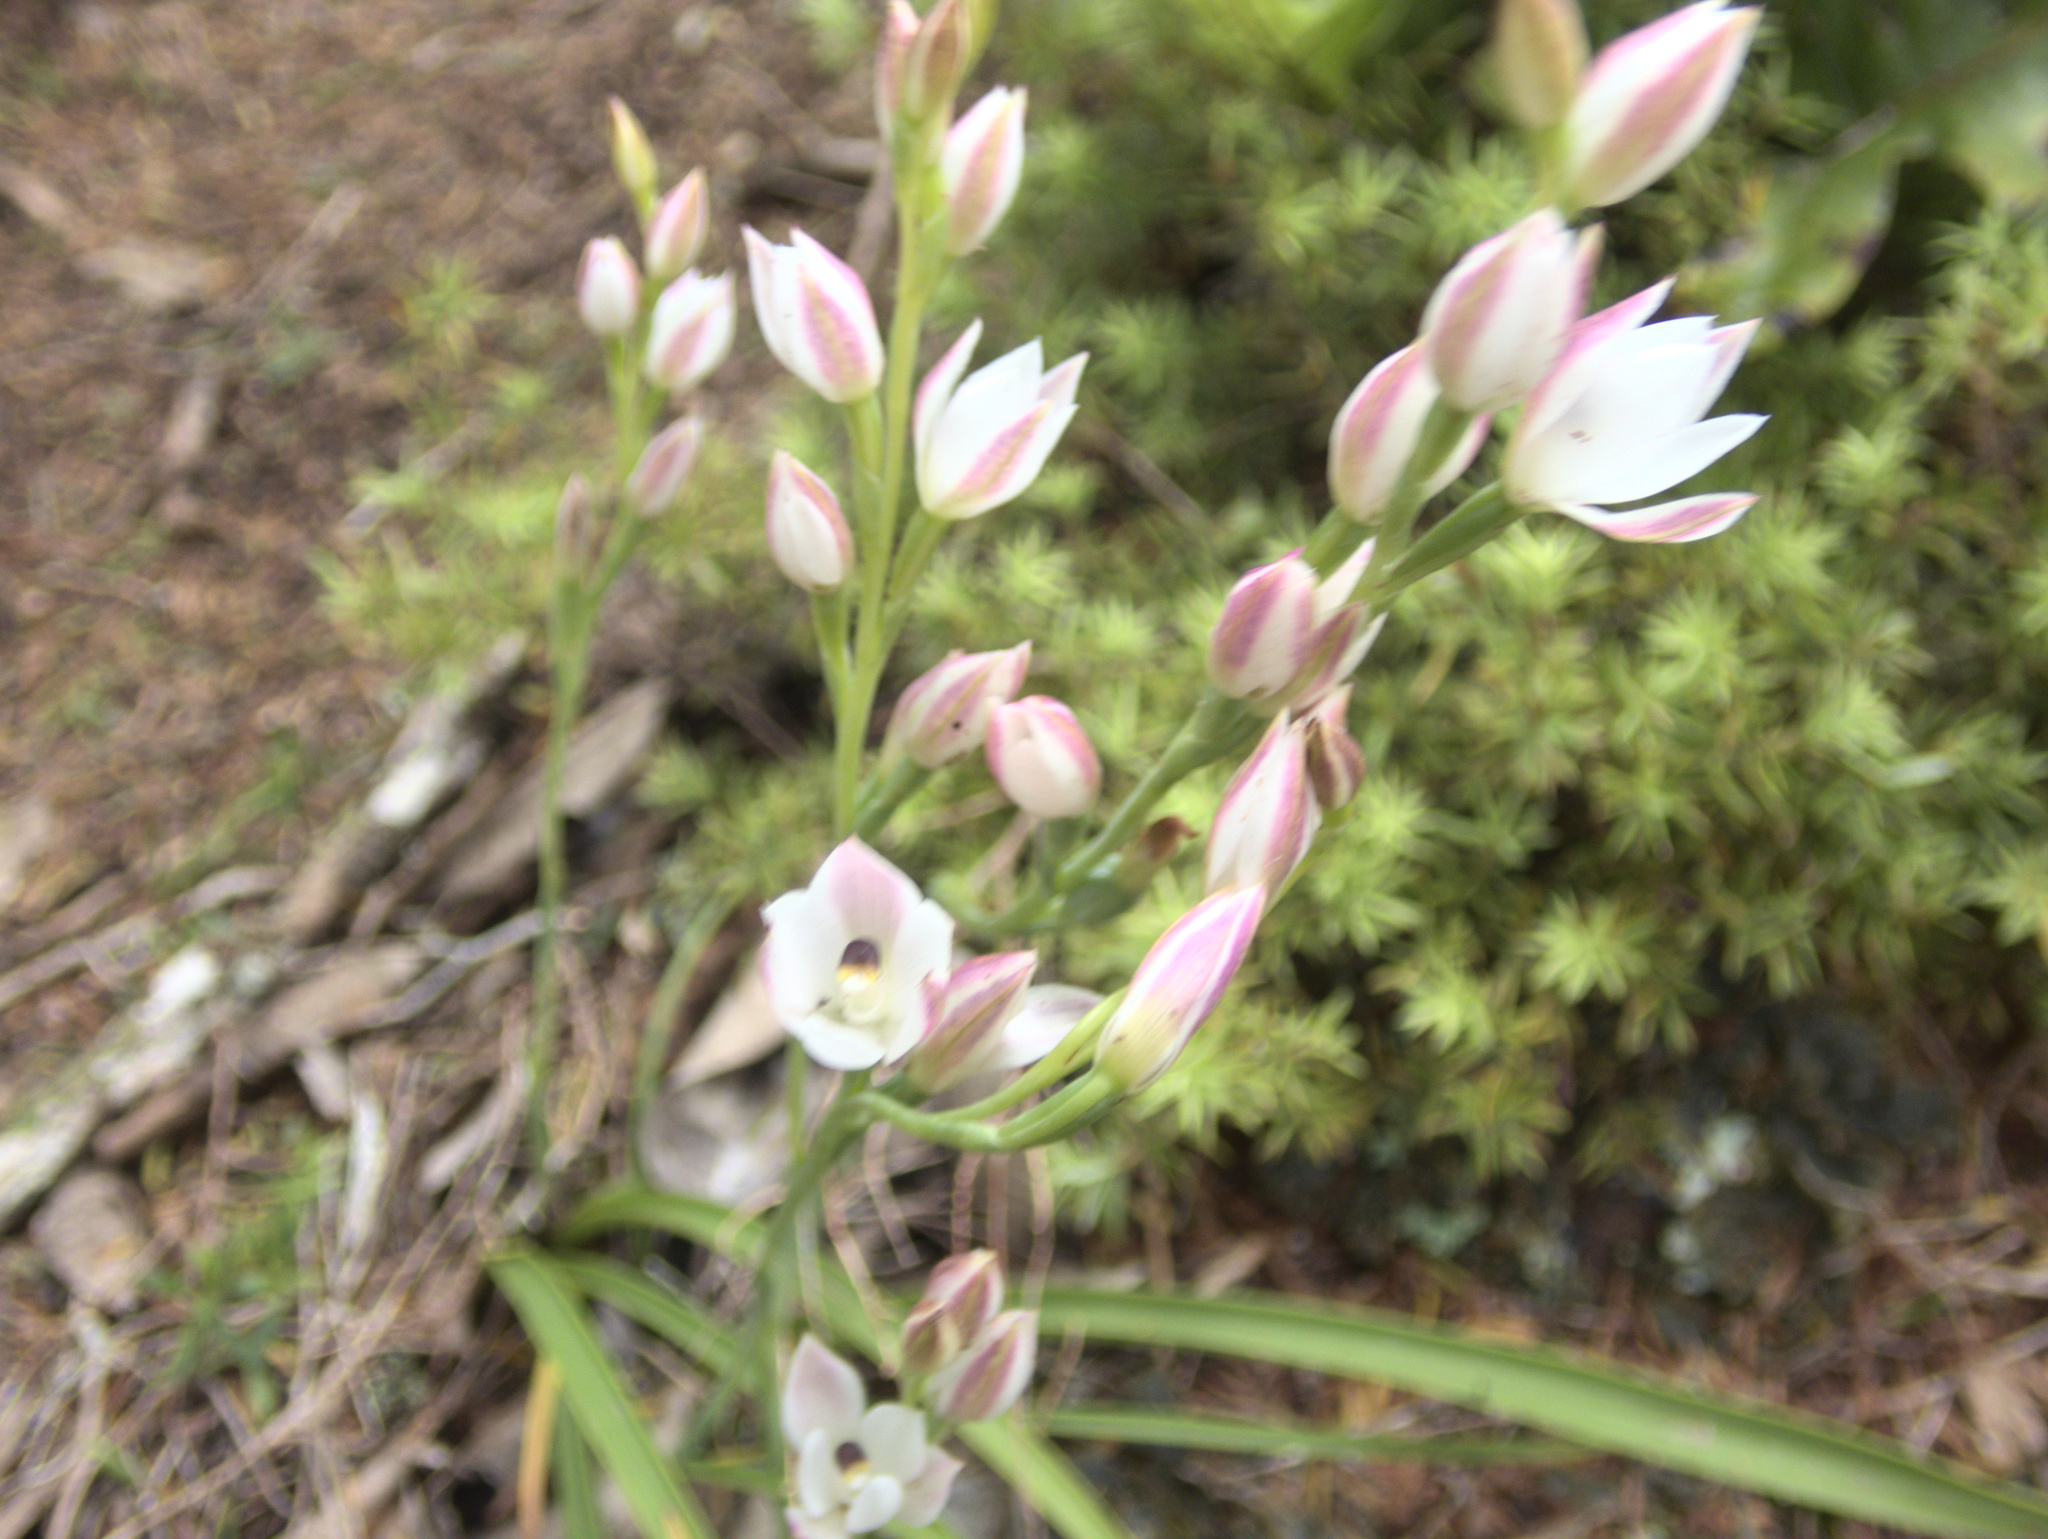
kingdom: Plantae
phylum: Tracheophyta
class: Liliopsida
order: Asparagales
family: Orchidaceae
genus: Thelymitra
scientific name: Thelymitra longifolia
